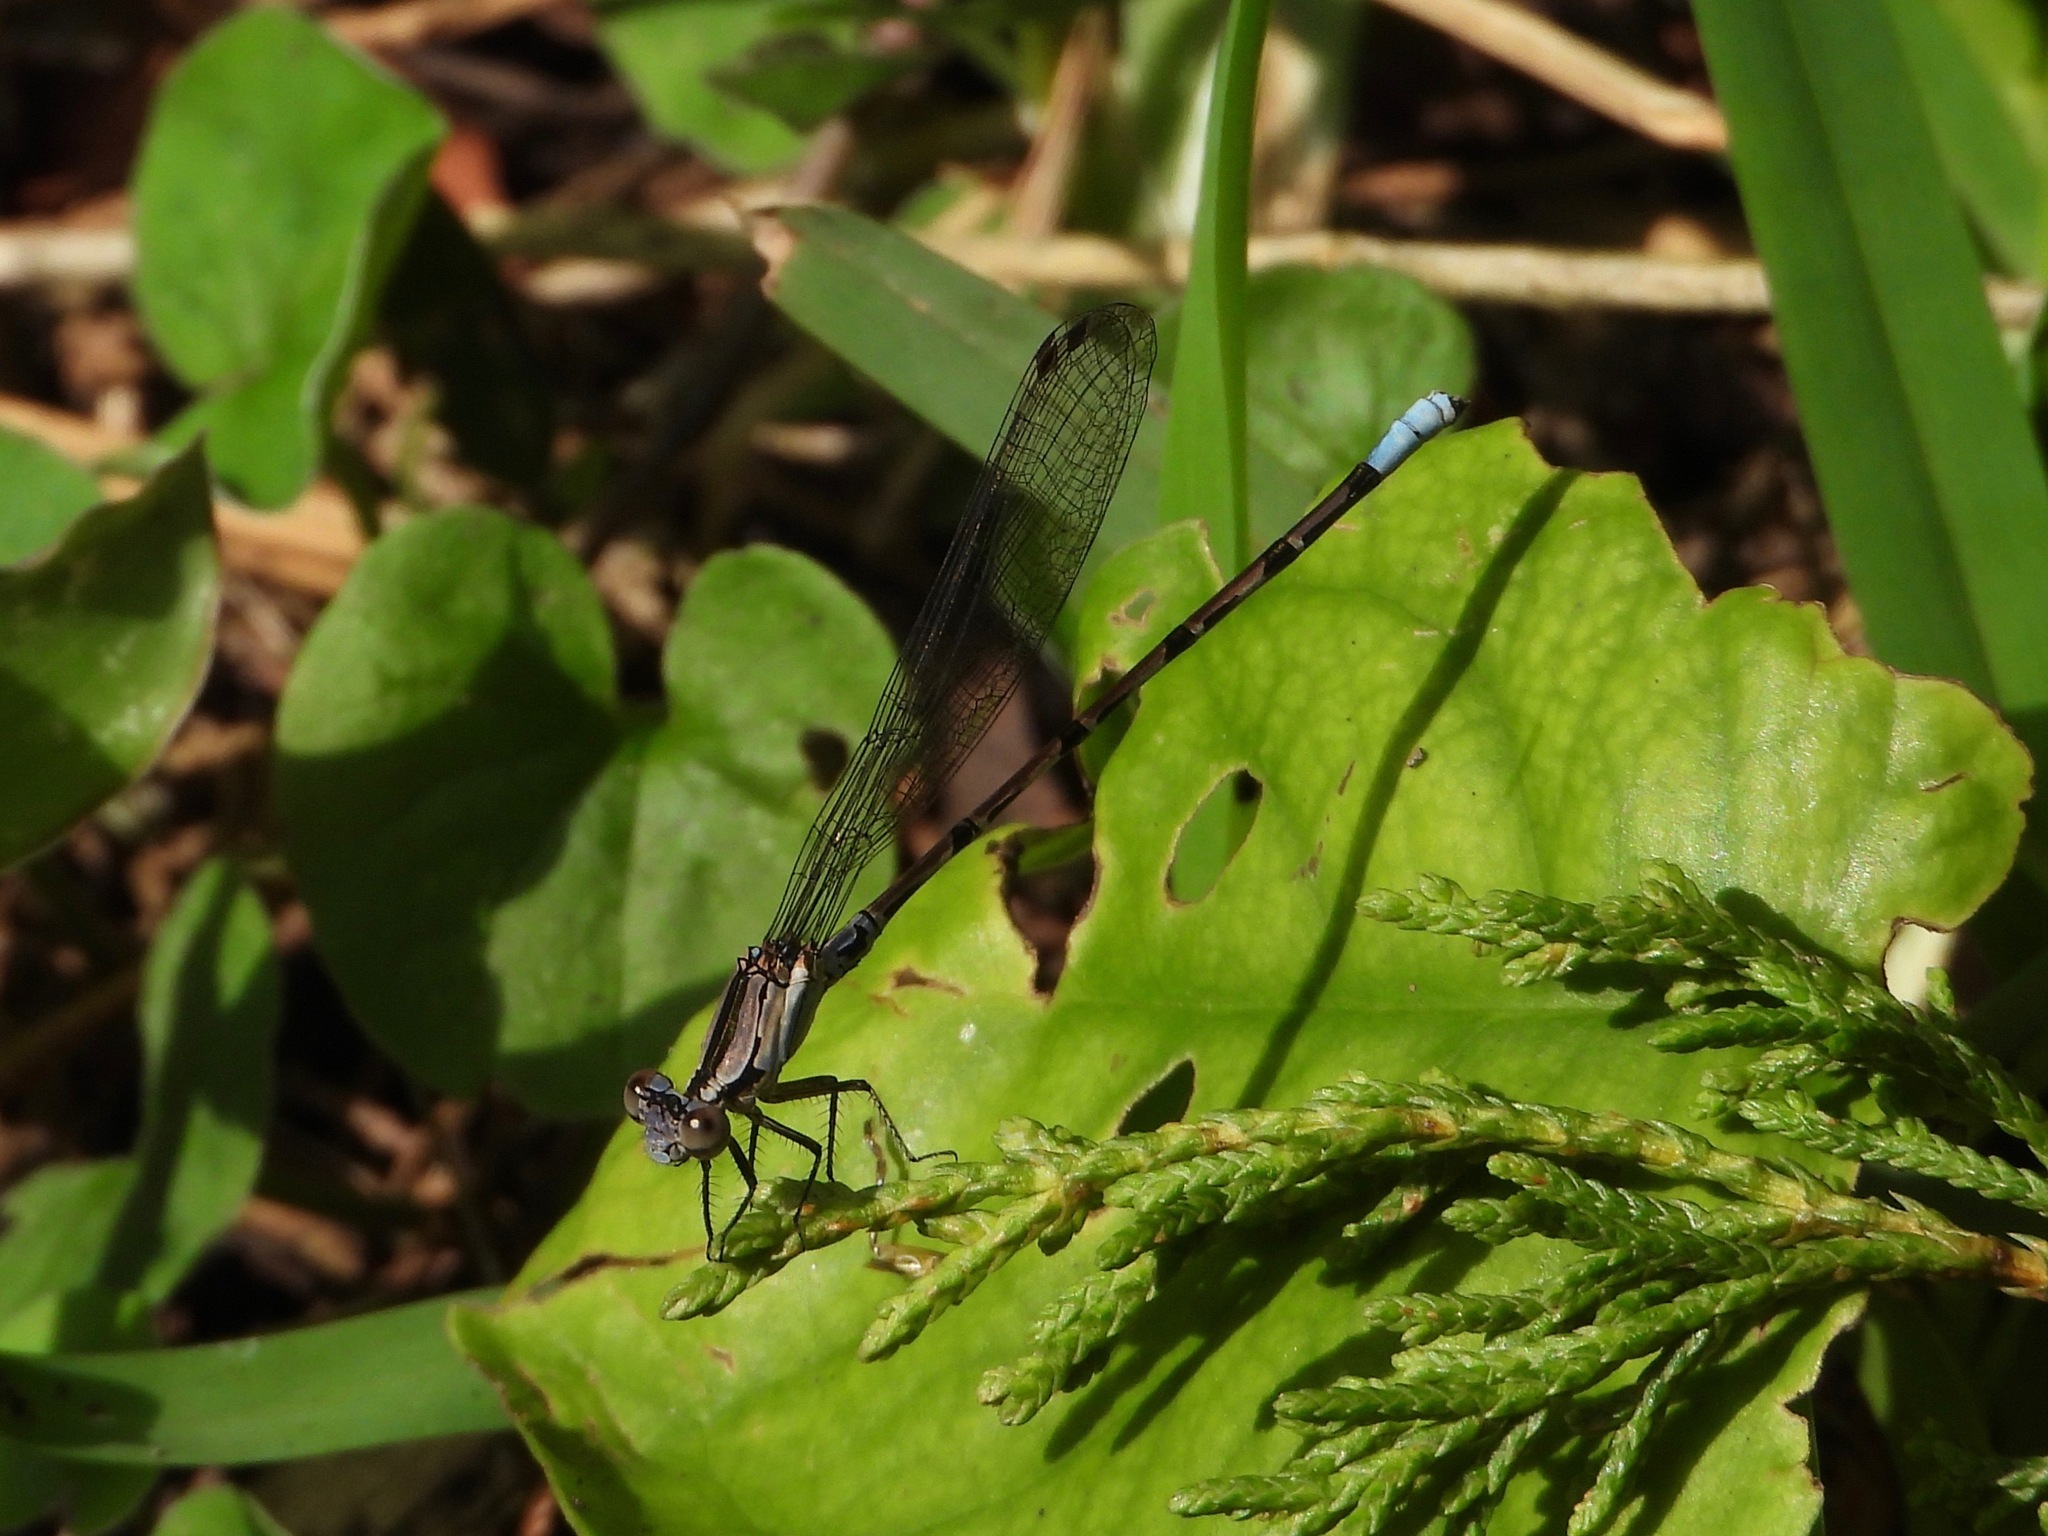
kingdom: Animalia
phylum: Arthropoda
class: Insecta
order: Odonata
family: Coenagrionidae
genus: Argia
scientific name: Argia elongata
